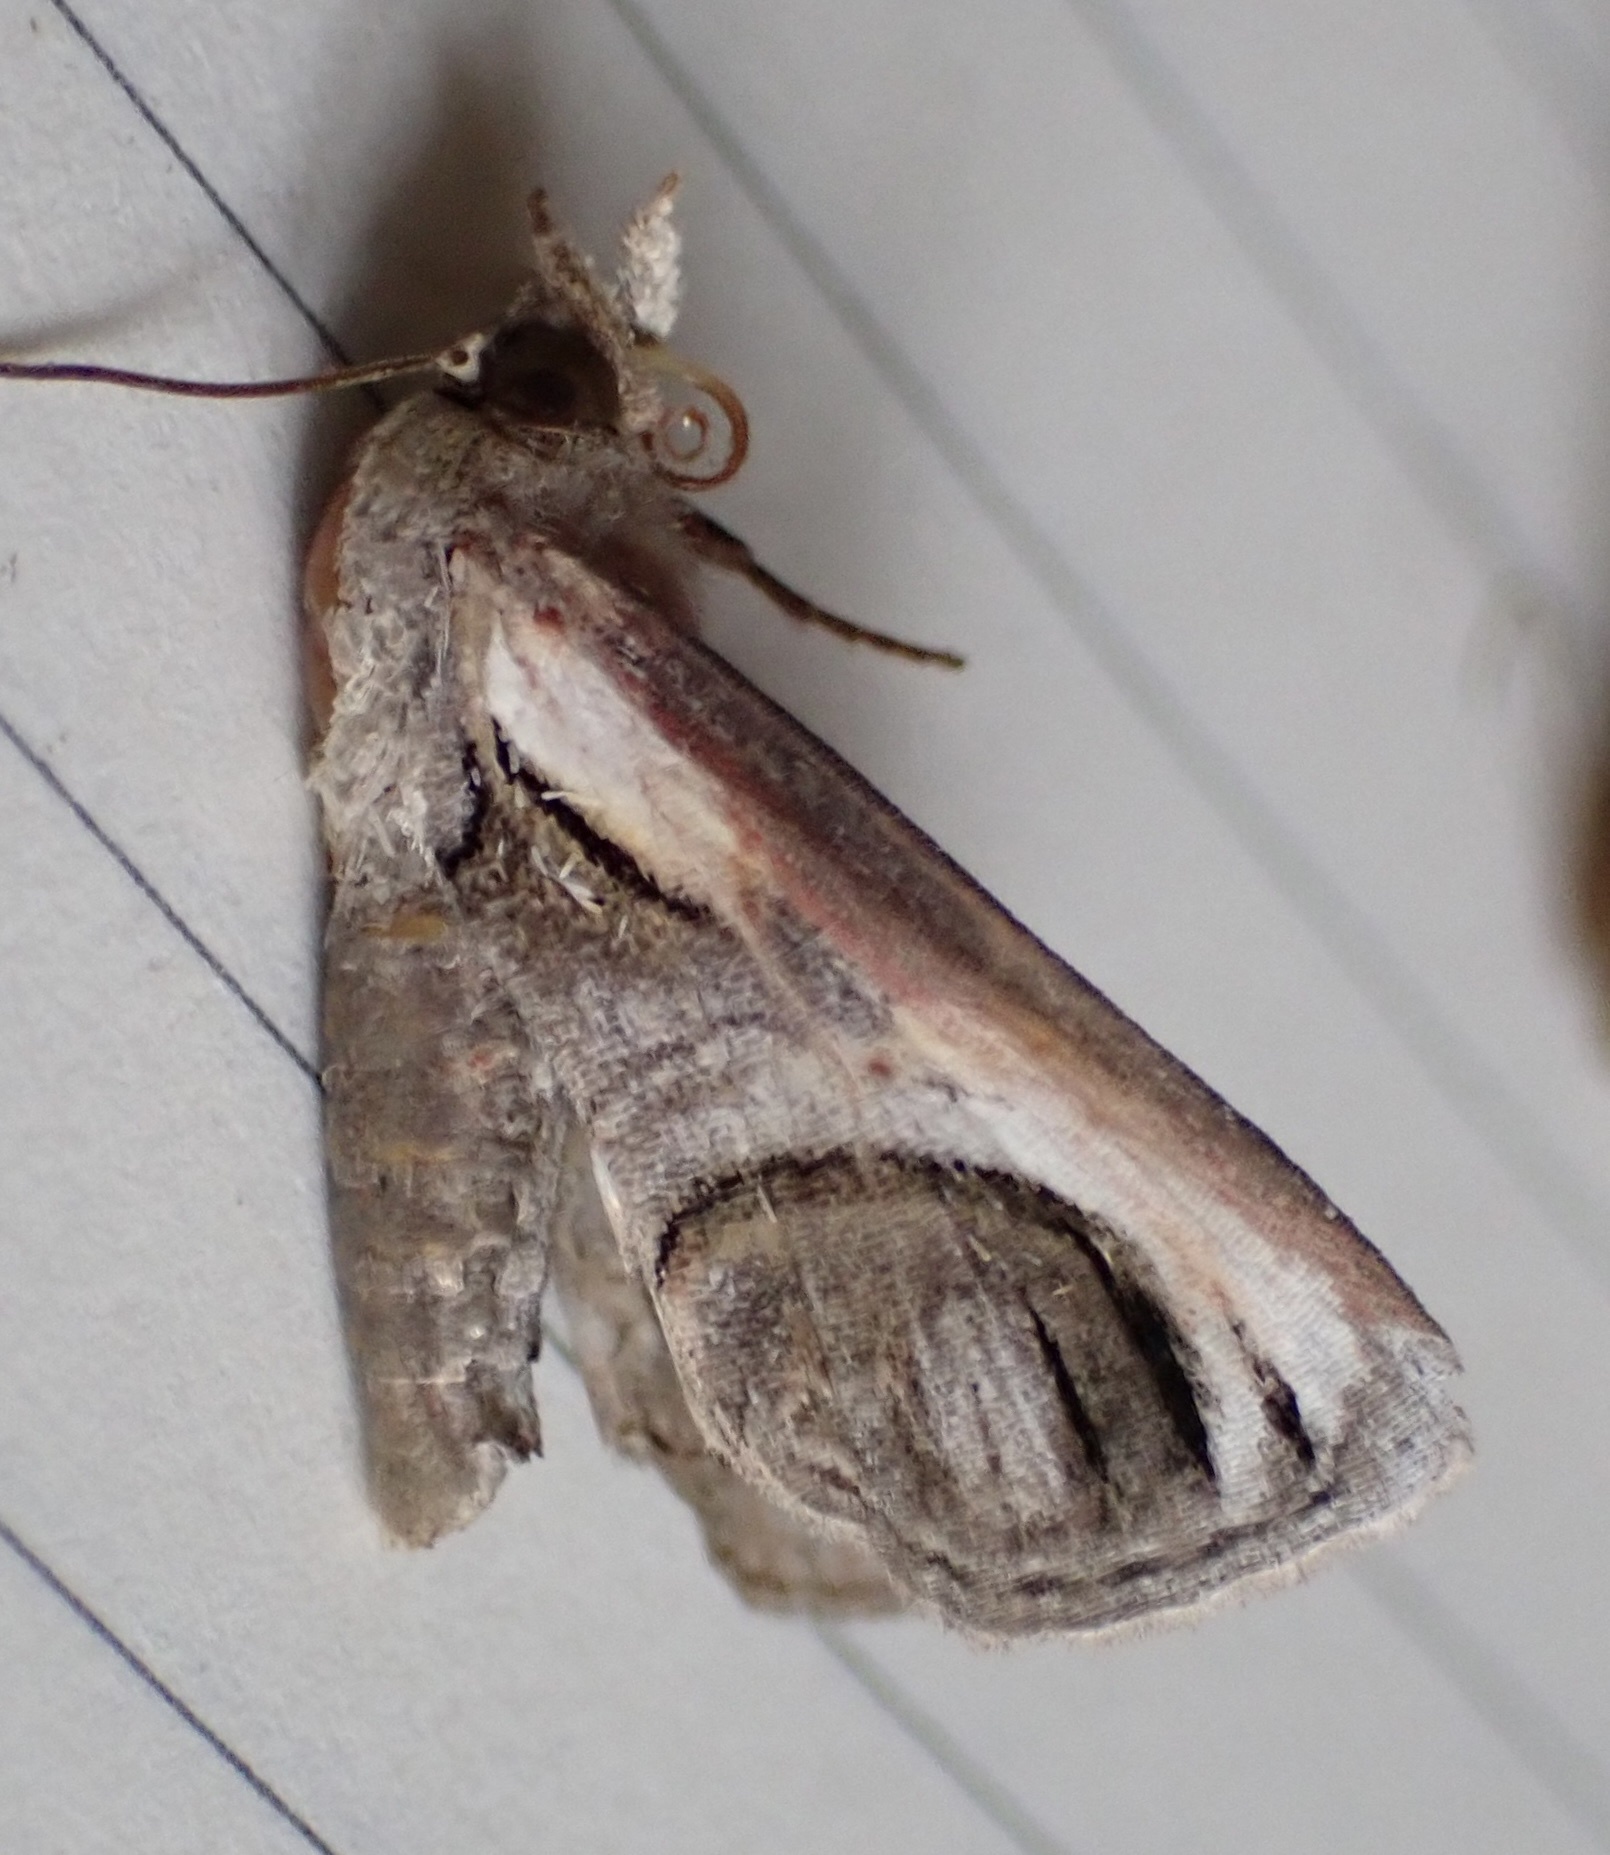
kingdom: Animalia
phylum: Arthropoda
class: Insecta
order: Lepidoptera
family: Euteliidae
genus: Paectes
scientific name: Paectes oculatrix
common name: Eyed paectes moth
